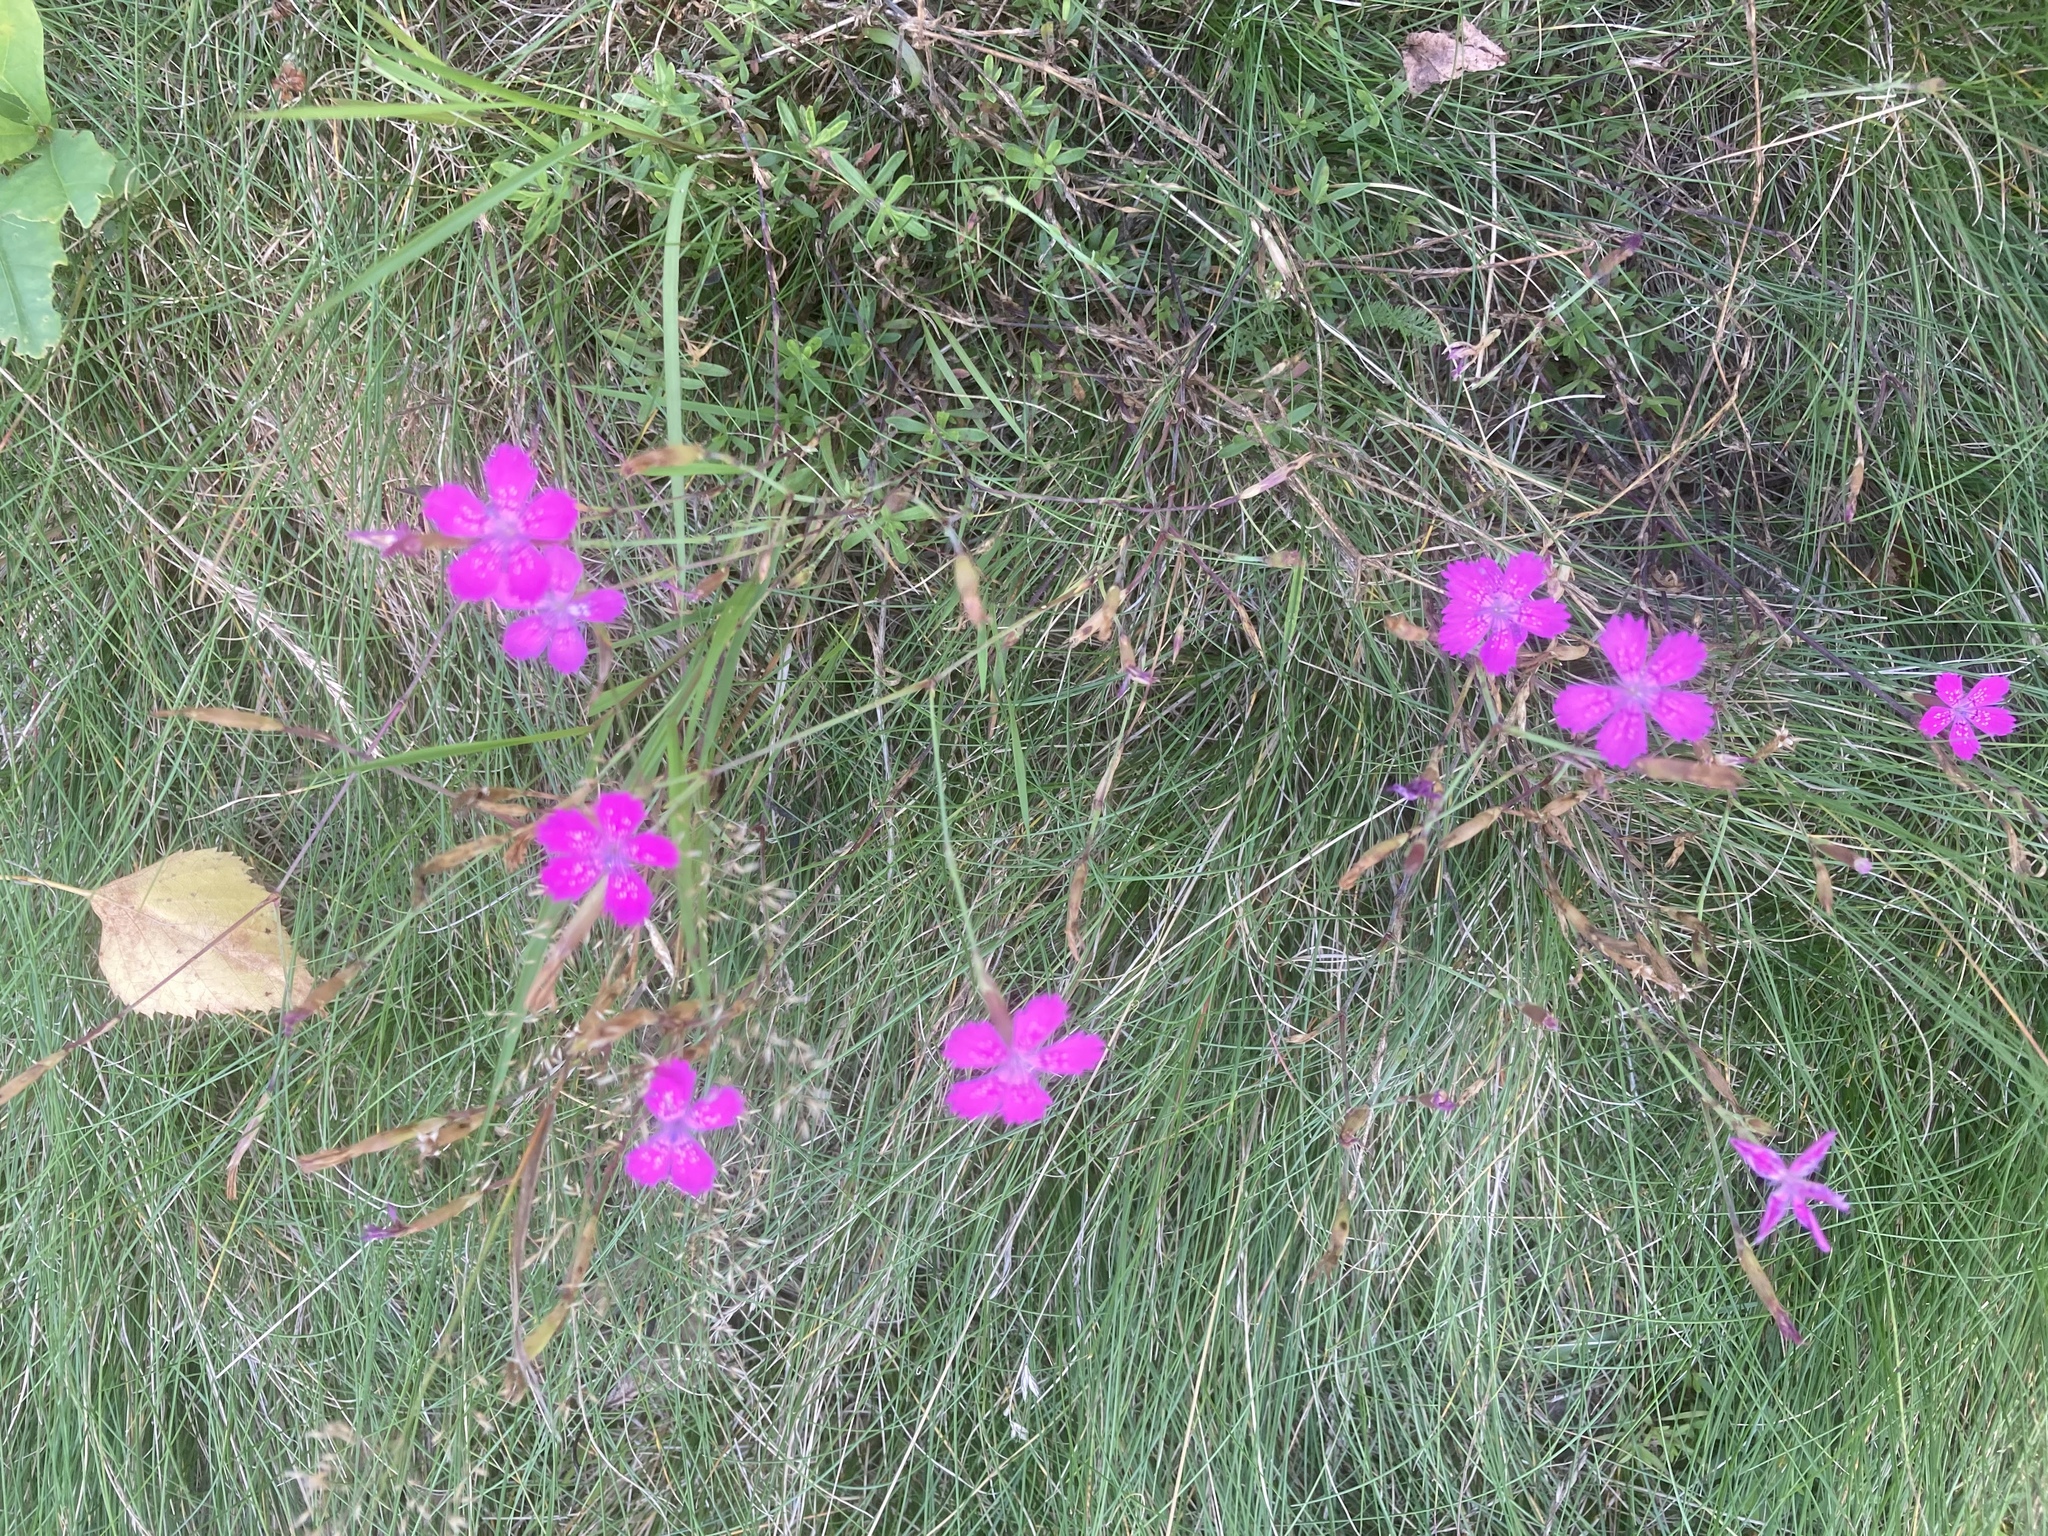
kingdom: Plantae
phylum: Tracheophyta
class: Magnoliopsida
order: Caryophyllales
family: Caryophyllaceae
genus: Dianthus
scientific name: Dianthus deltoides
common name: Maiden pink
